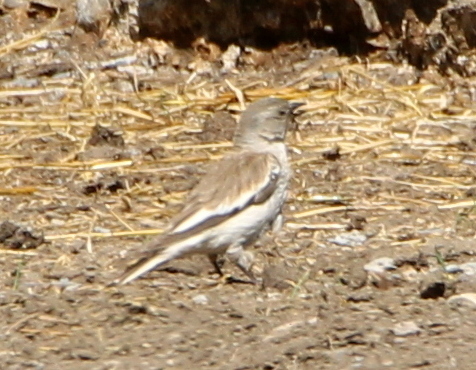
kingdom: Animalia
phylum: Chordata
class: Aves
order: Passeriformes
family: Passeridae
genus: Montifringilla
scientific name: Montifringilla nivalis
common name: White-winged snowfinch
